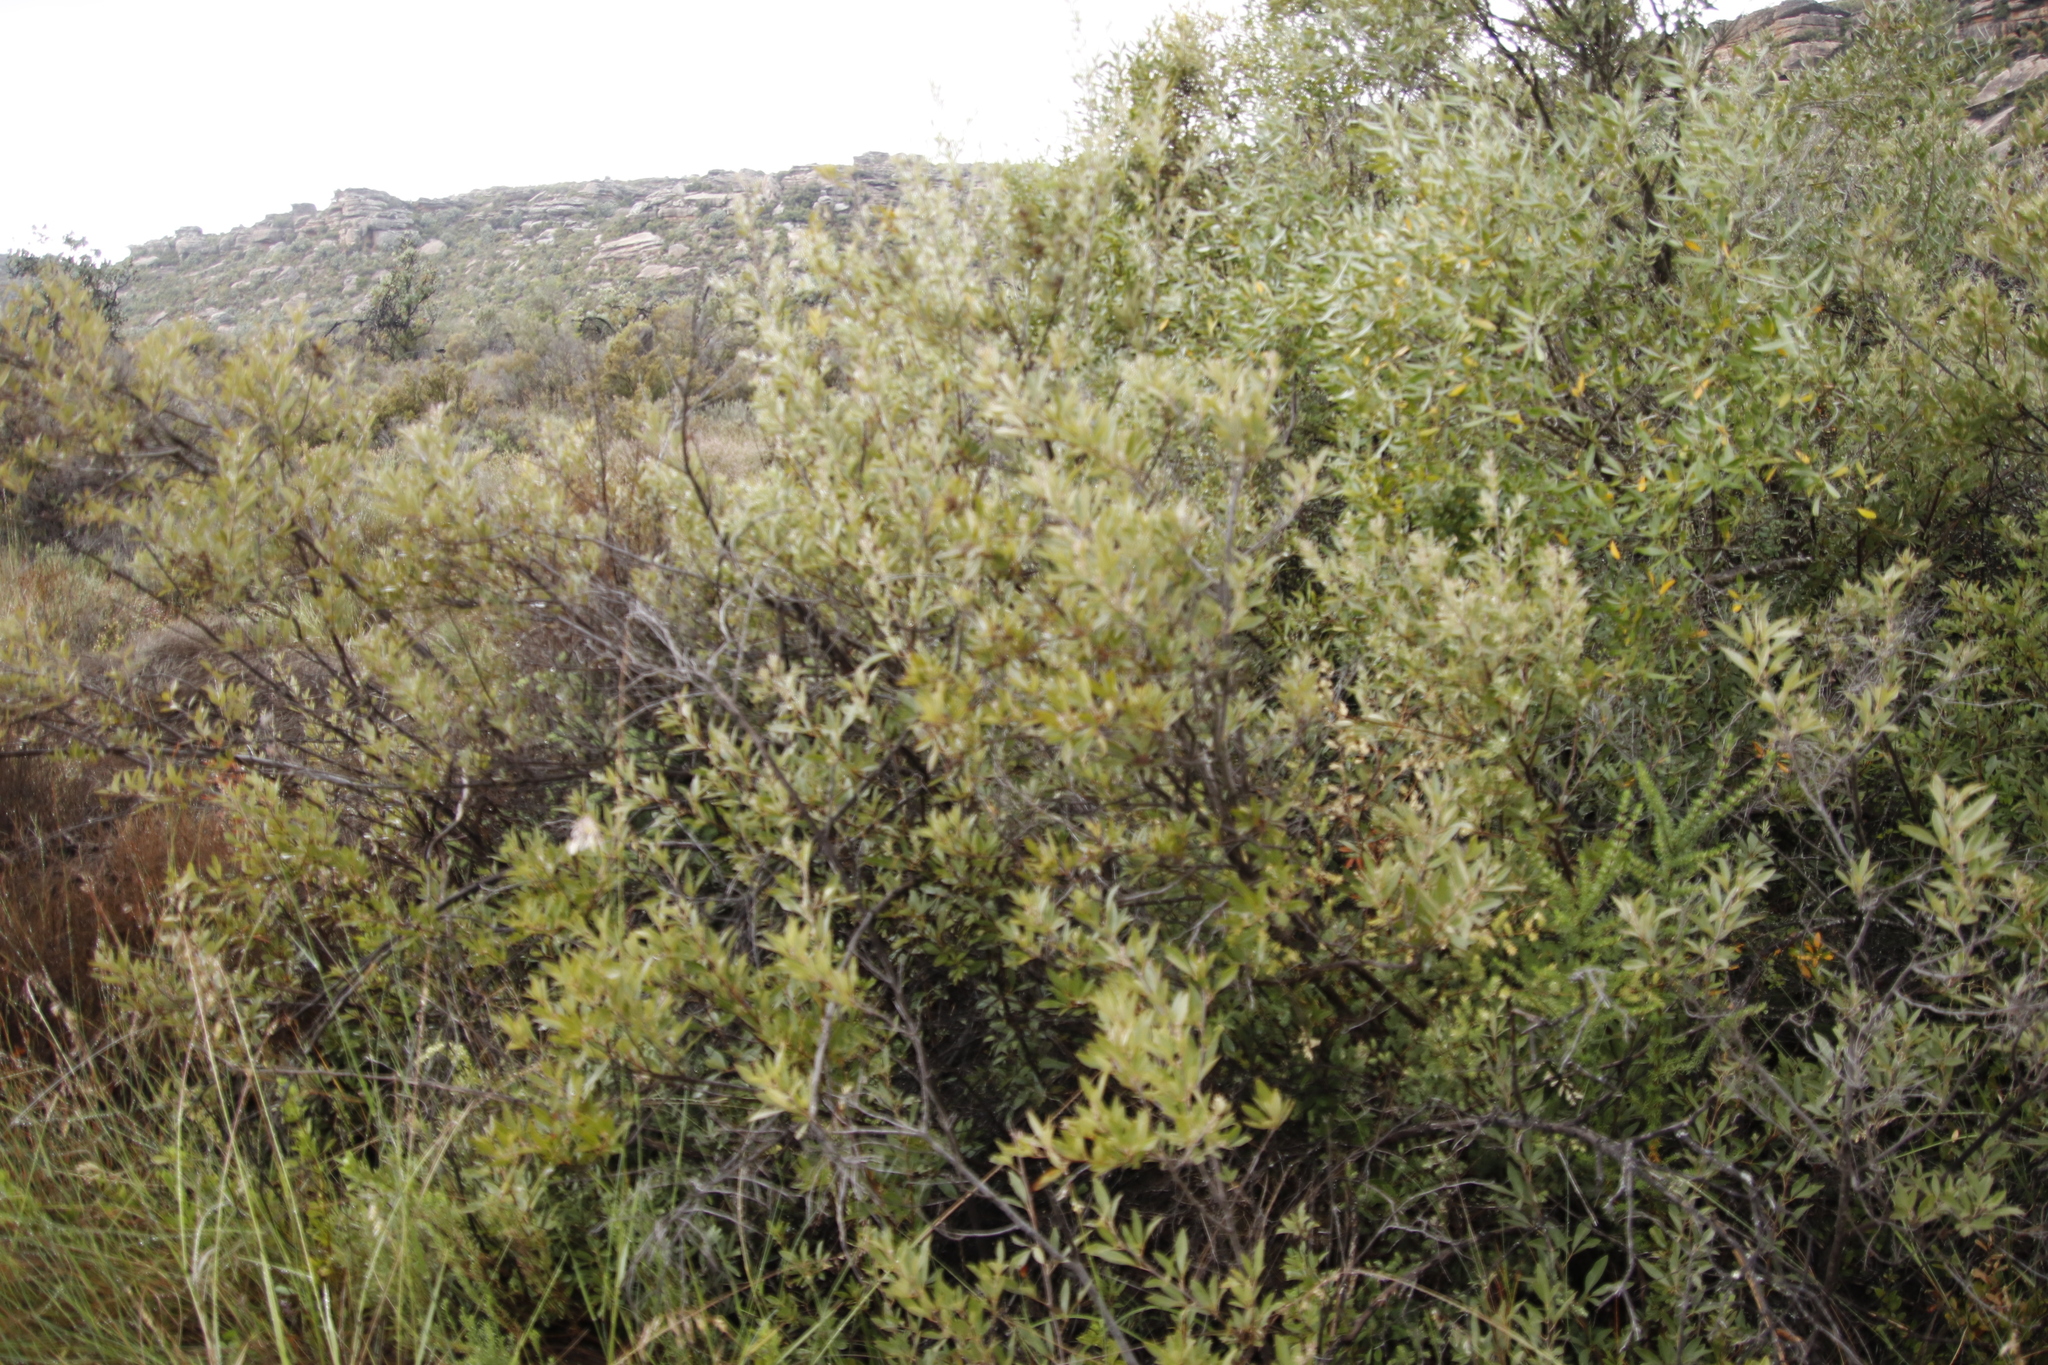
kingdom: Plantae
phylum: Tracheophyta
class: Magnoliopsida
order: Sapindales
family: Anacardiaceae
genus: Searsia
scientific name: Searsia angustifolia
